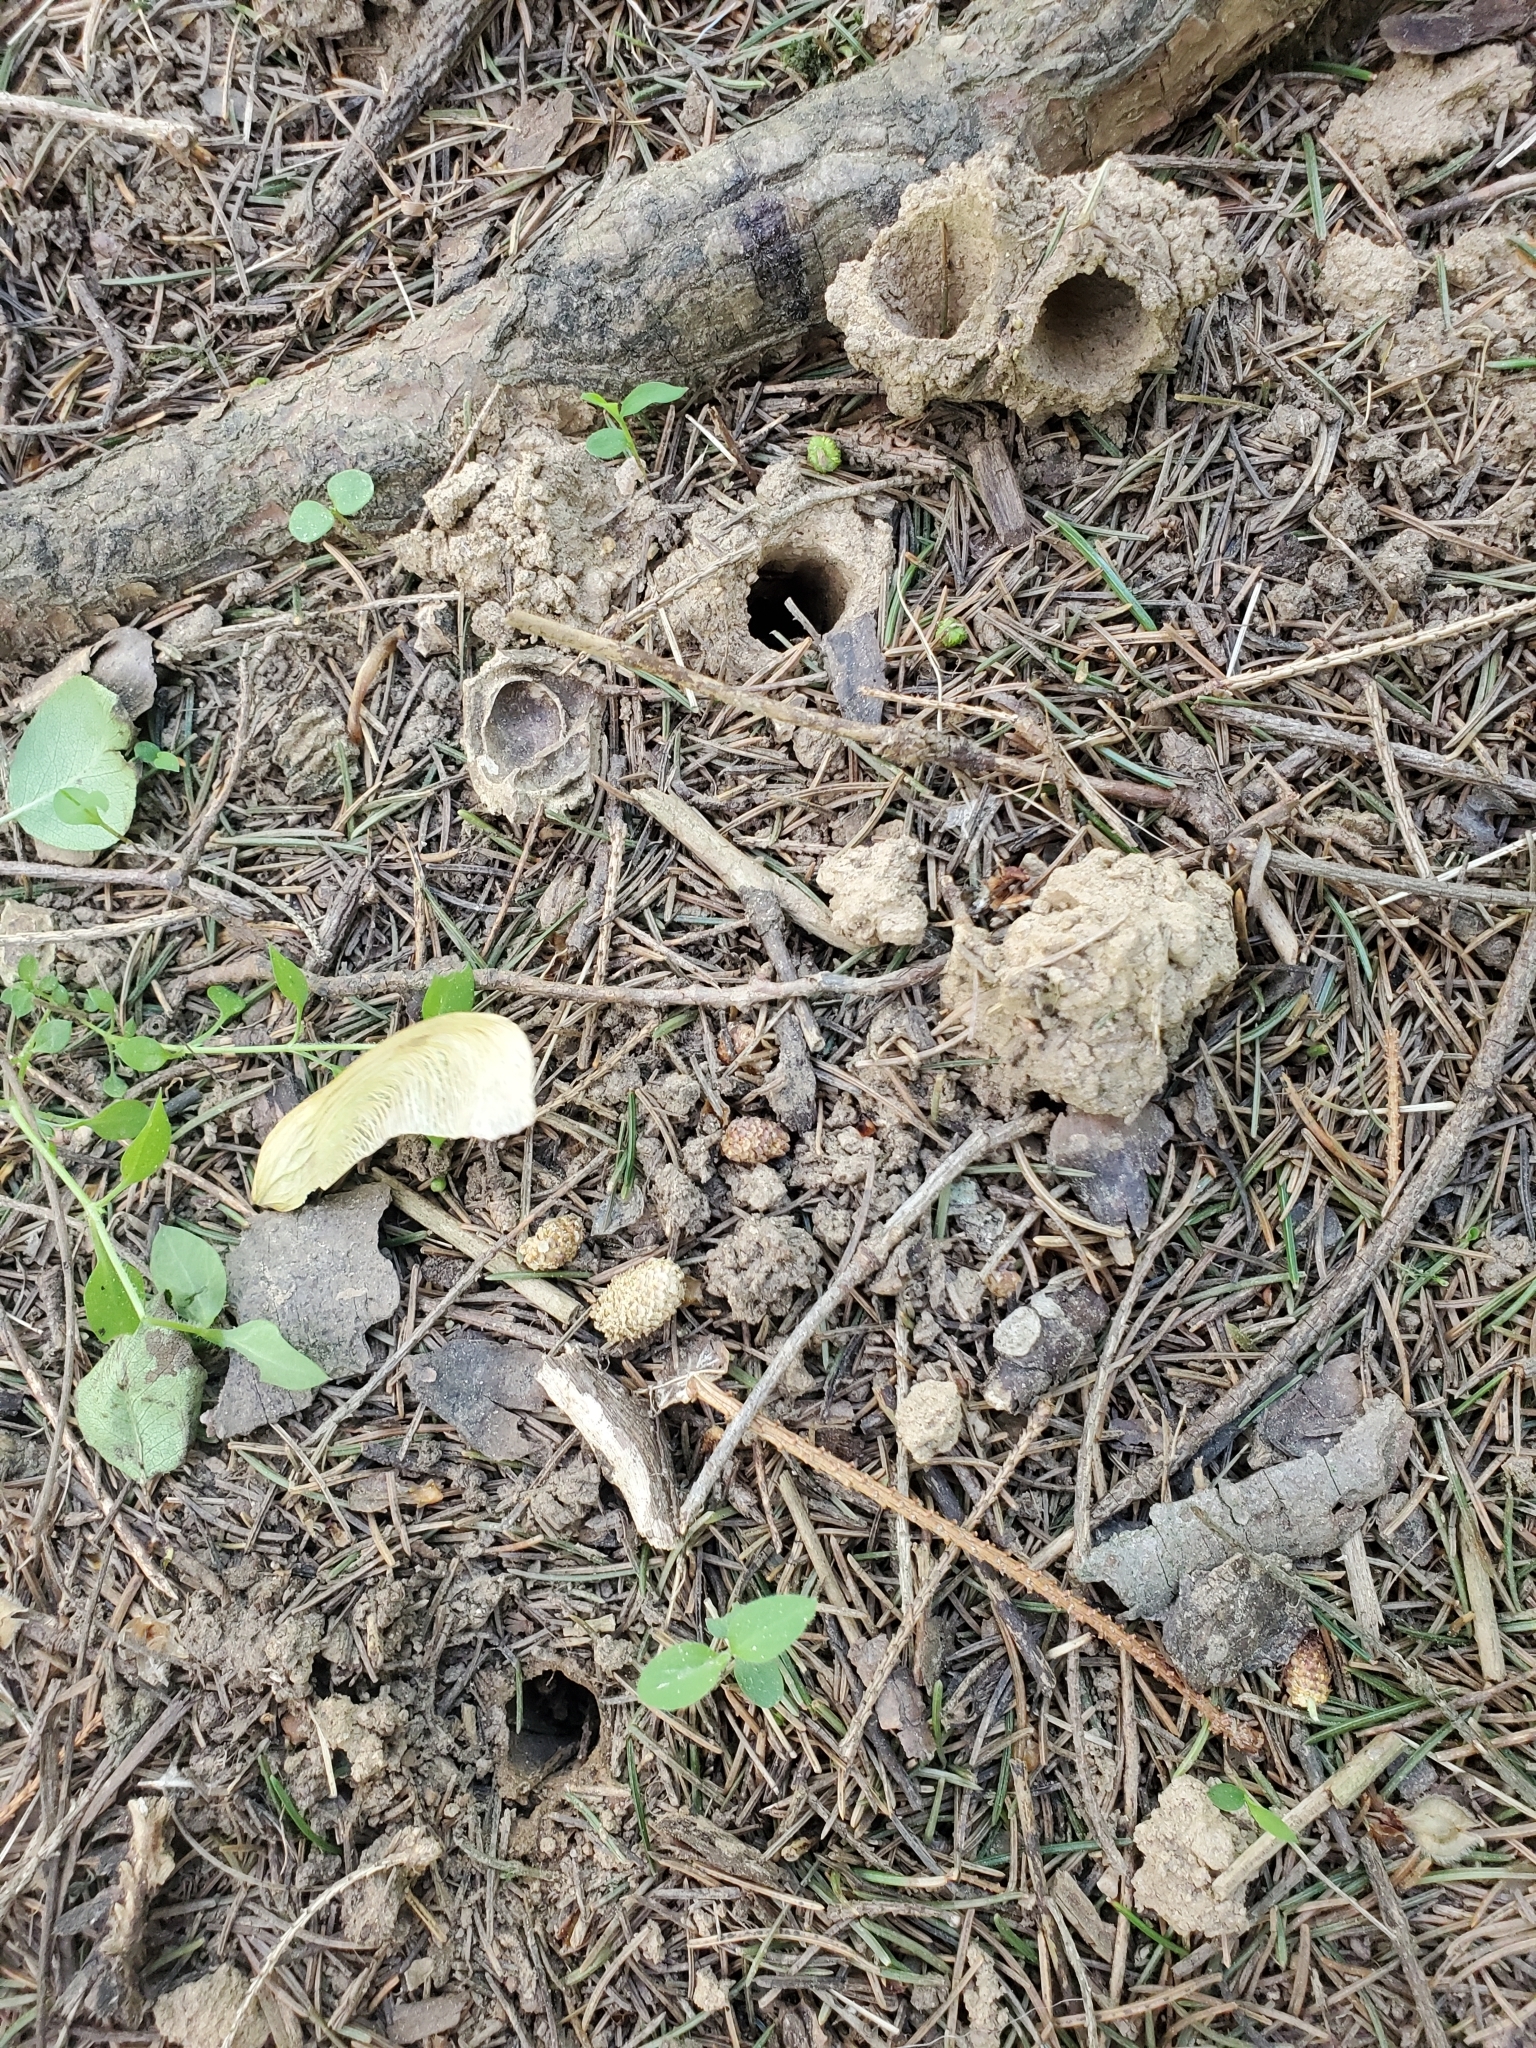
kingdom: Animalia
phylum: Arthropoda
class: Insecta
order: Hemiptera
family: Cicadidae
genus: Magicicada
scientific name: Magicicada
